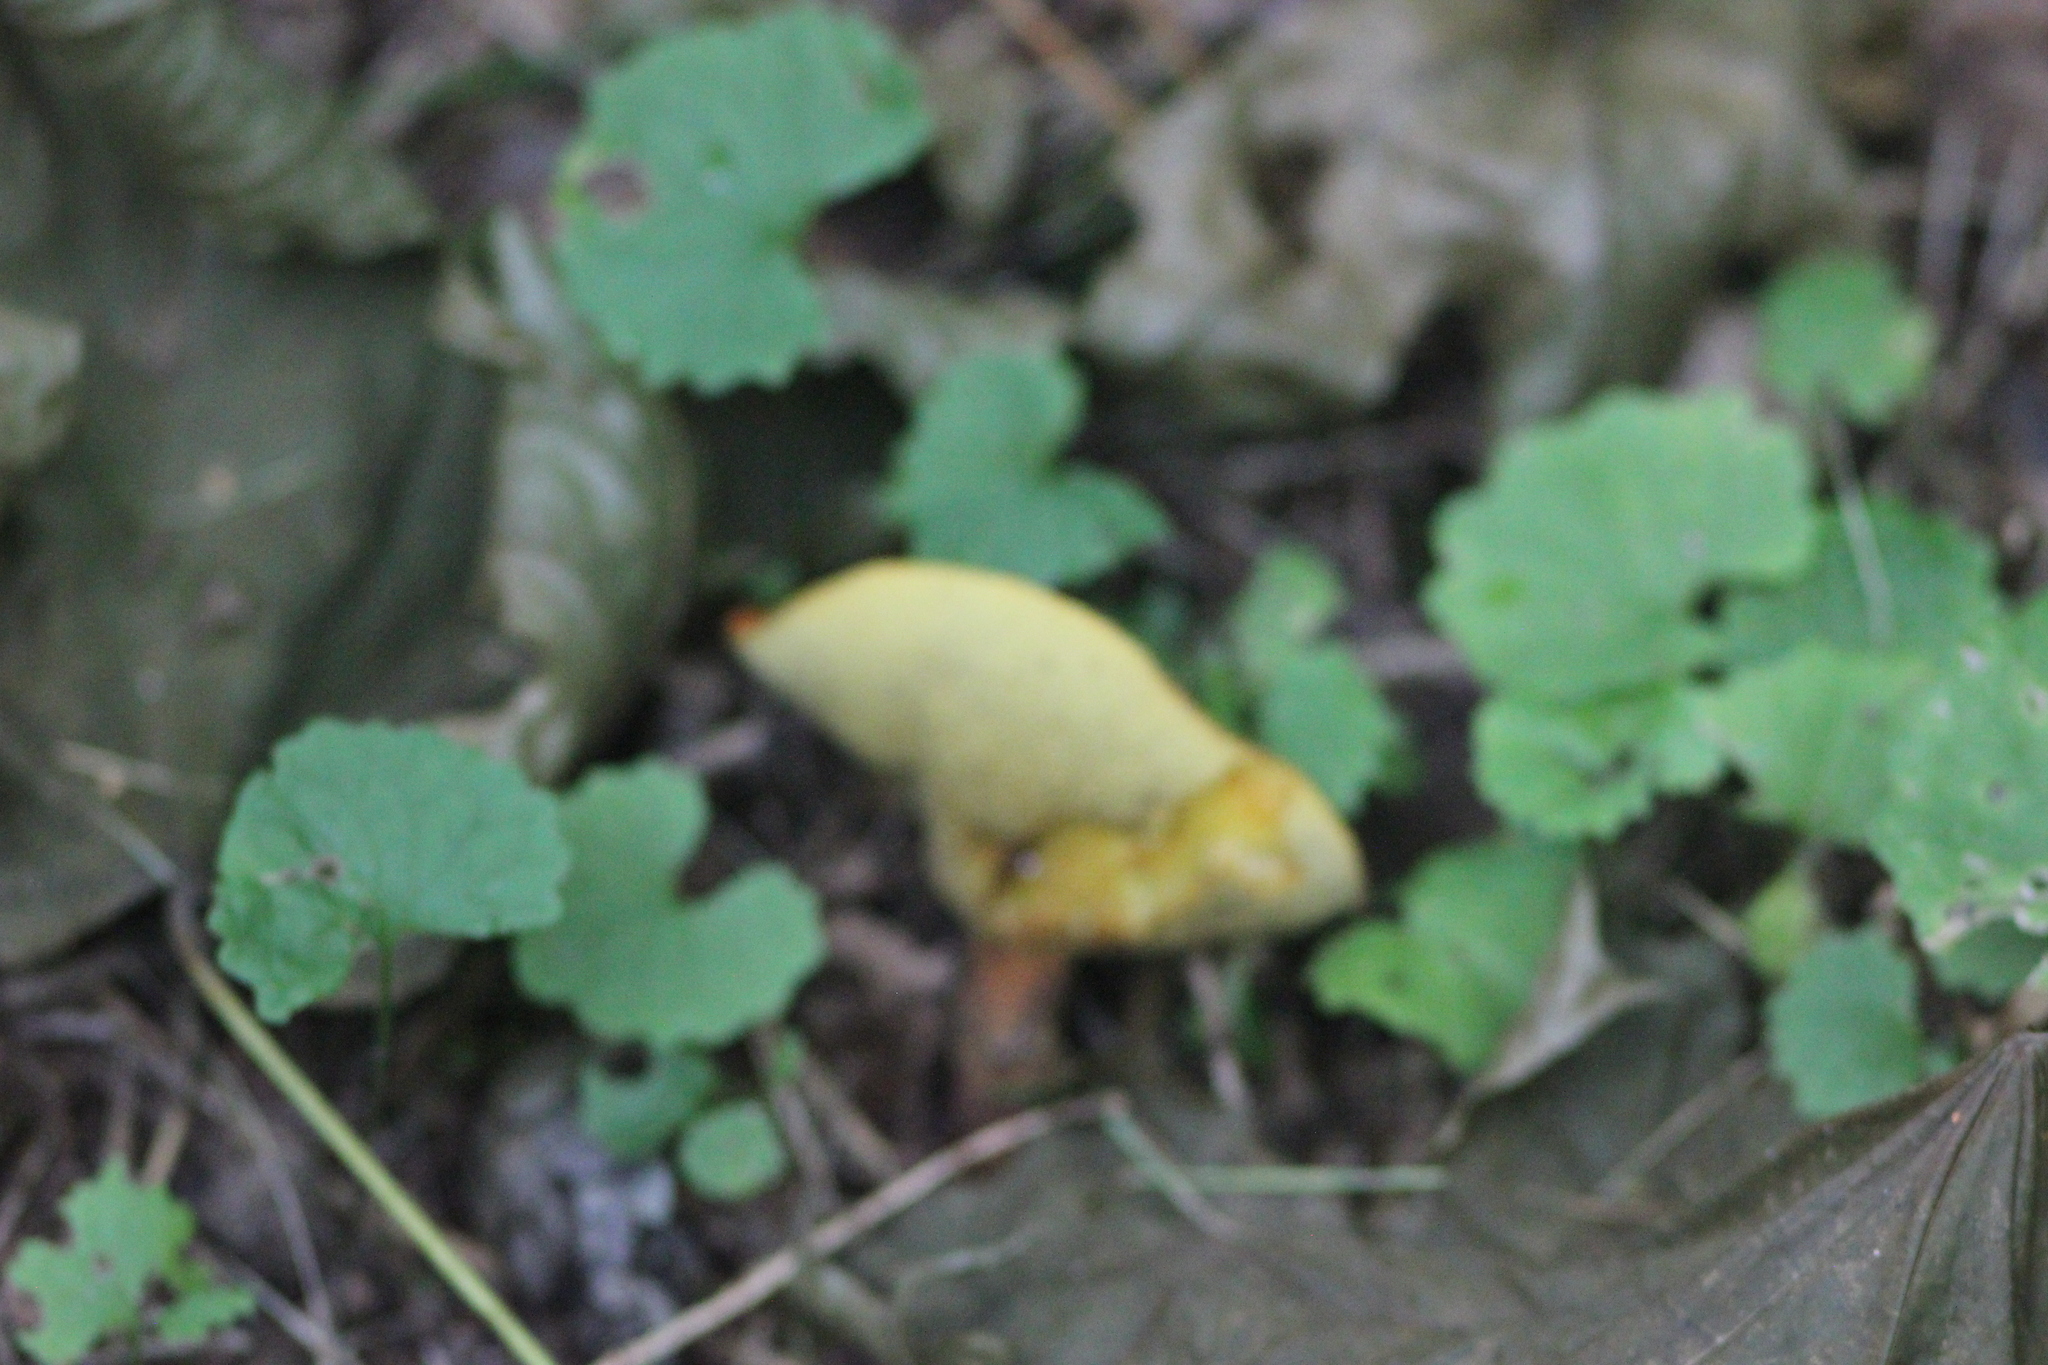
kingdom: Fungi
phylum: Basidiomycota
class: Agaricomycetes
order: Boletales
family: Suillaceae
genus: Suillus
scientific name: Suillus grevillei
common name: Larch bolete
